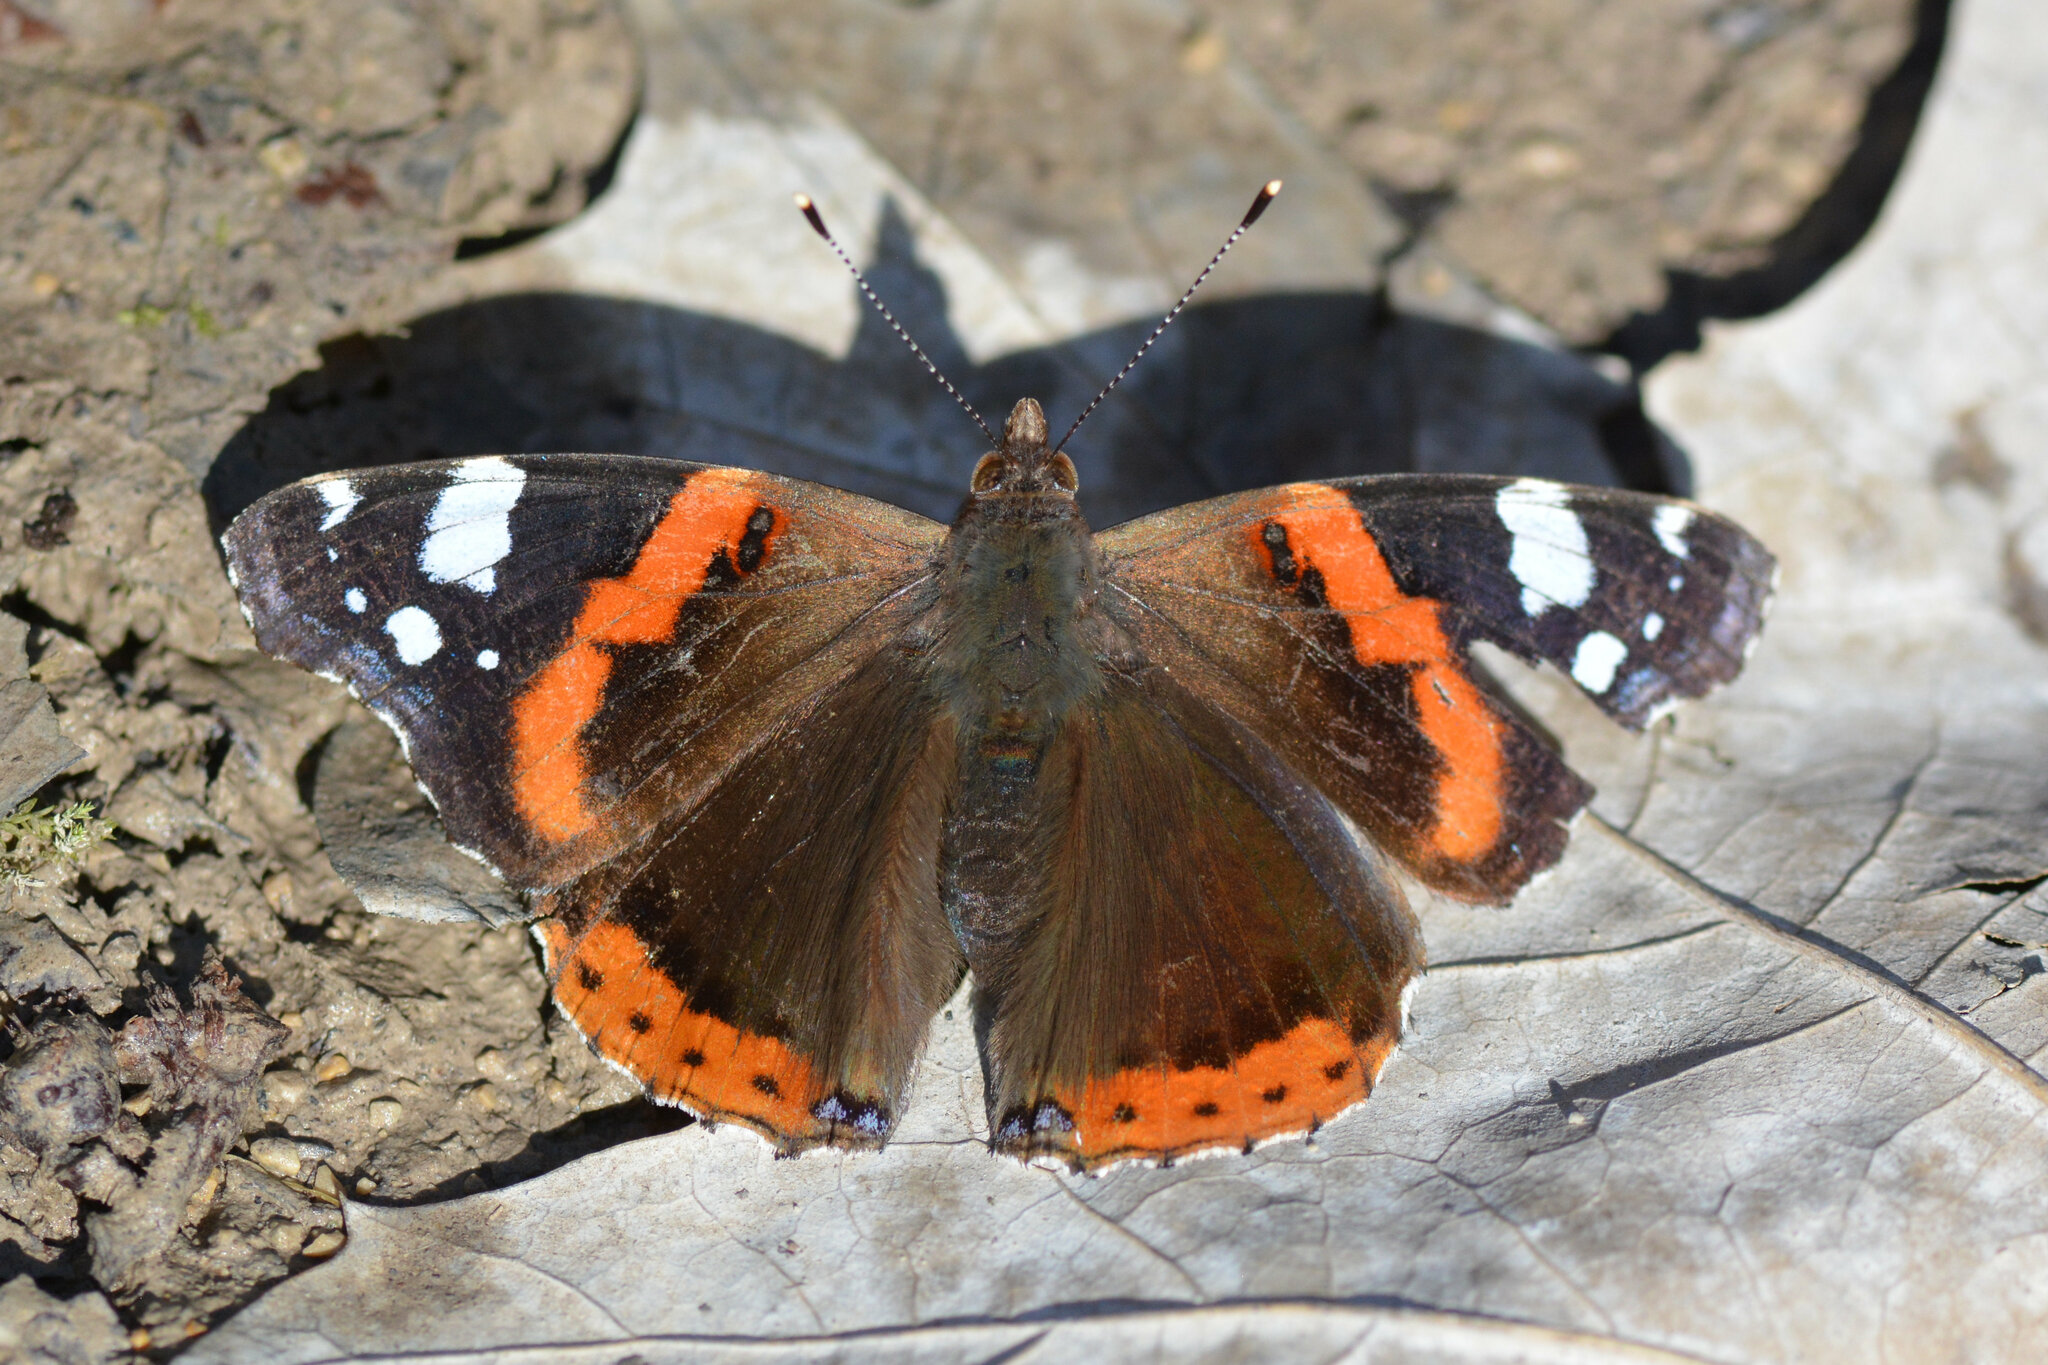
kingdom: Animalia
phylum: Arthropoda
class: Insecta
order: Lepidoptera
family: Nymphalidae
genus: Vanessa
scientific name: Vanessa atalanta
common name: Red admiral
